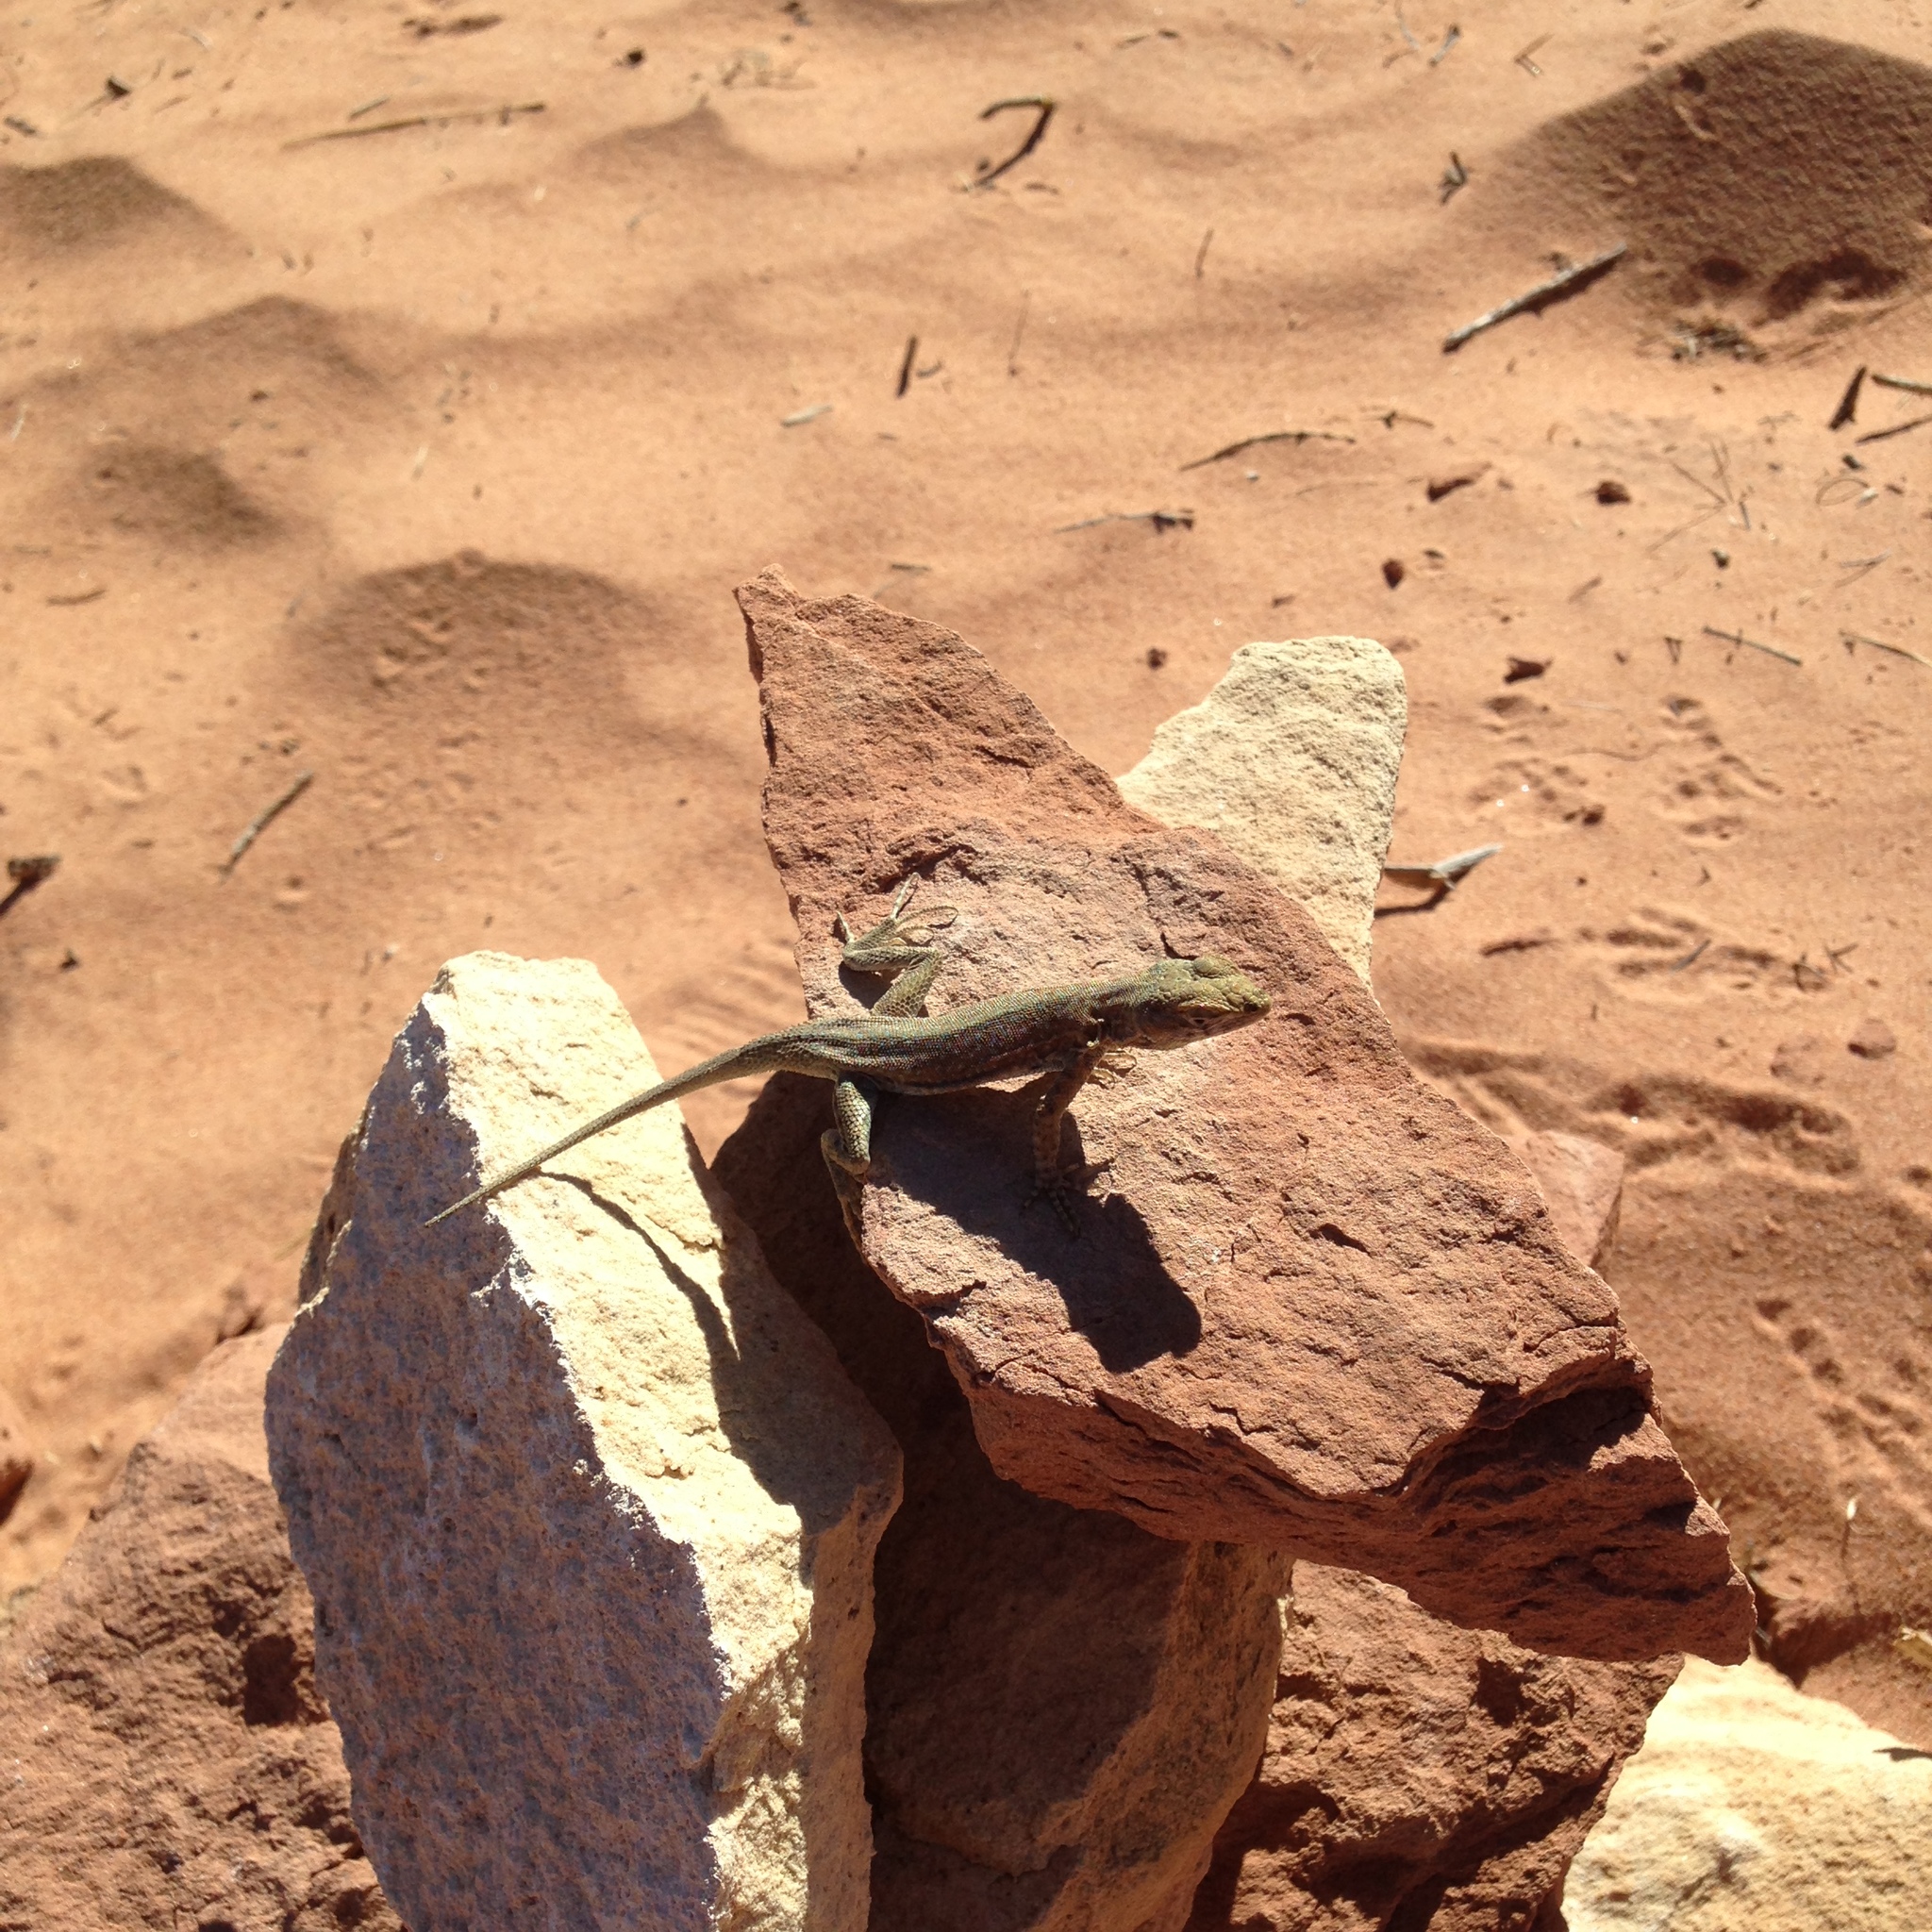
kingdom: Animalia
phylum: Chordata
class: Squamata
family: Phrynosomatidae
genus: Uta
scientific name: Uta stansburiana
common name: Side-blotched lizard
